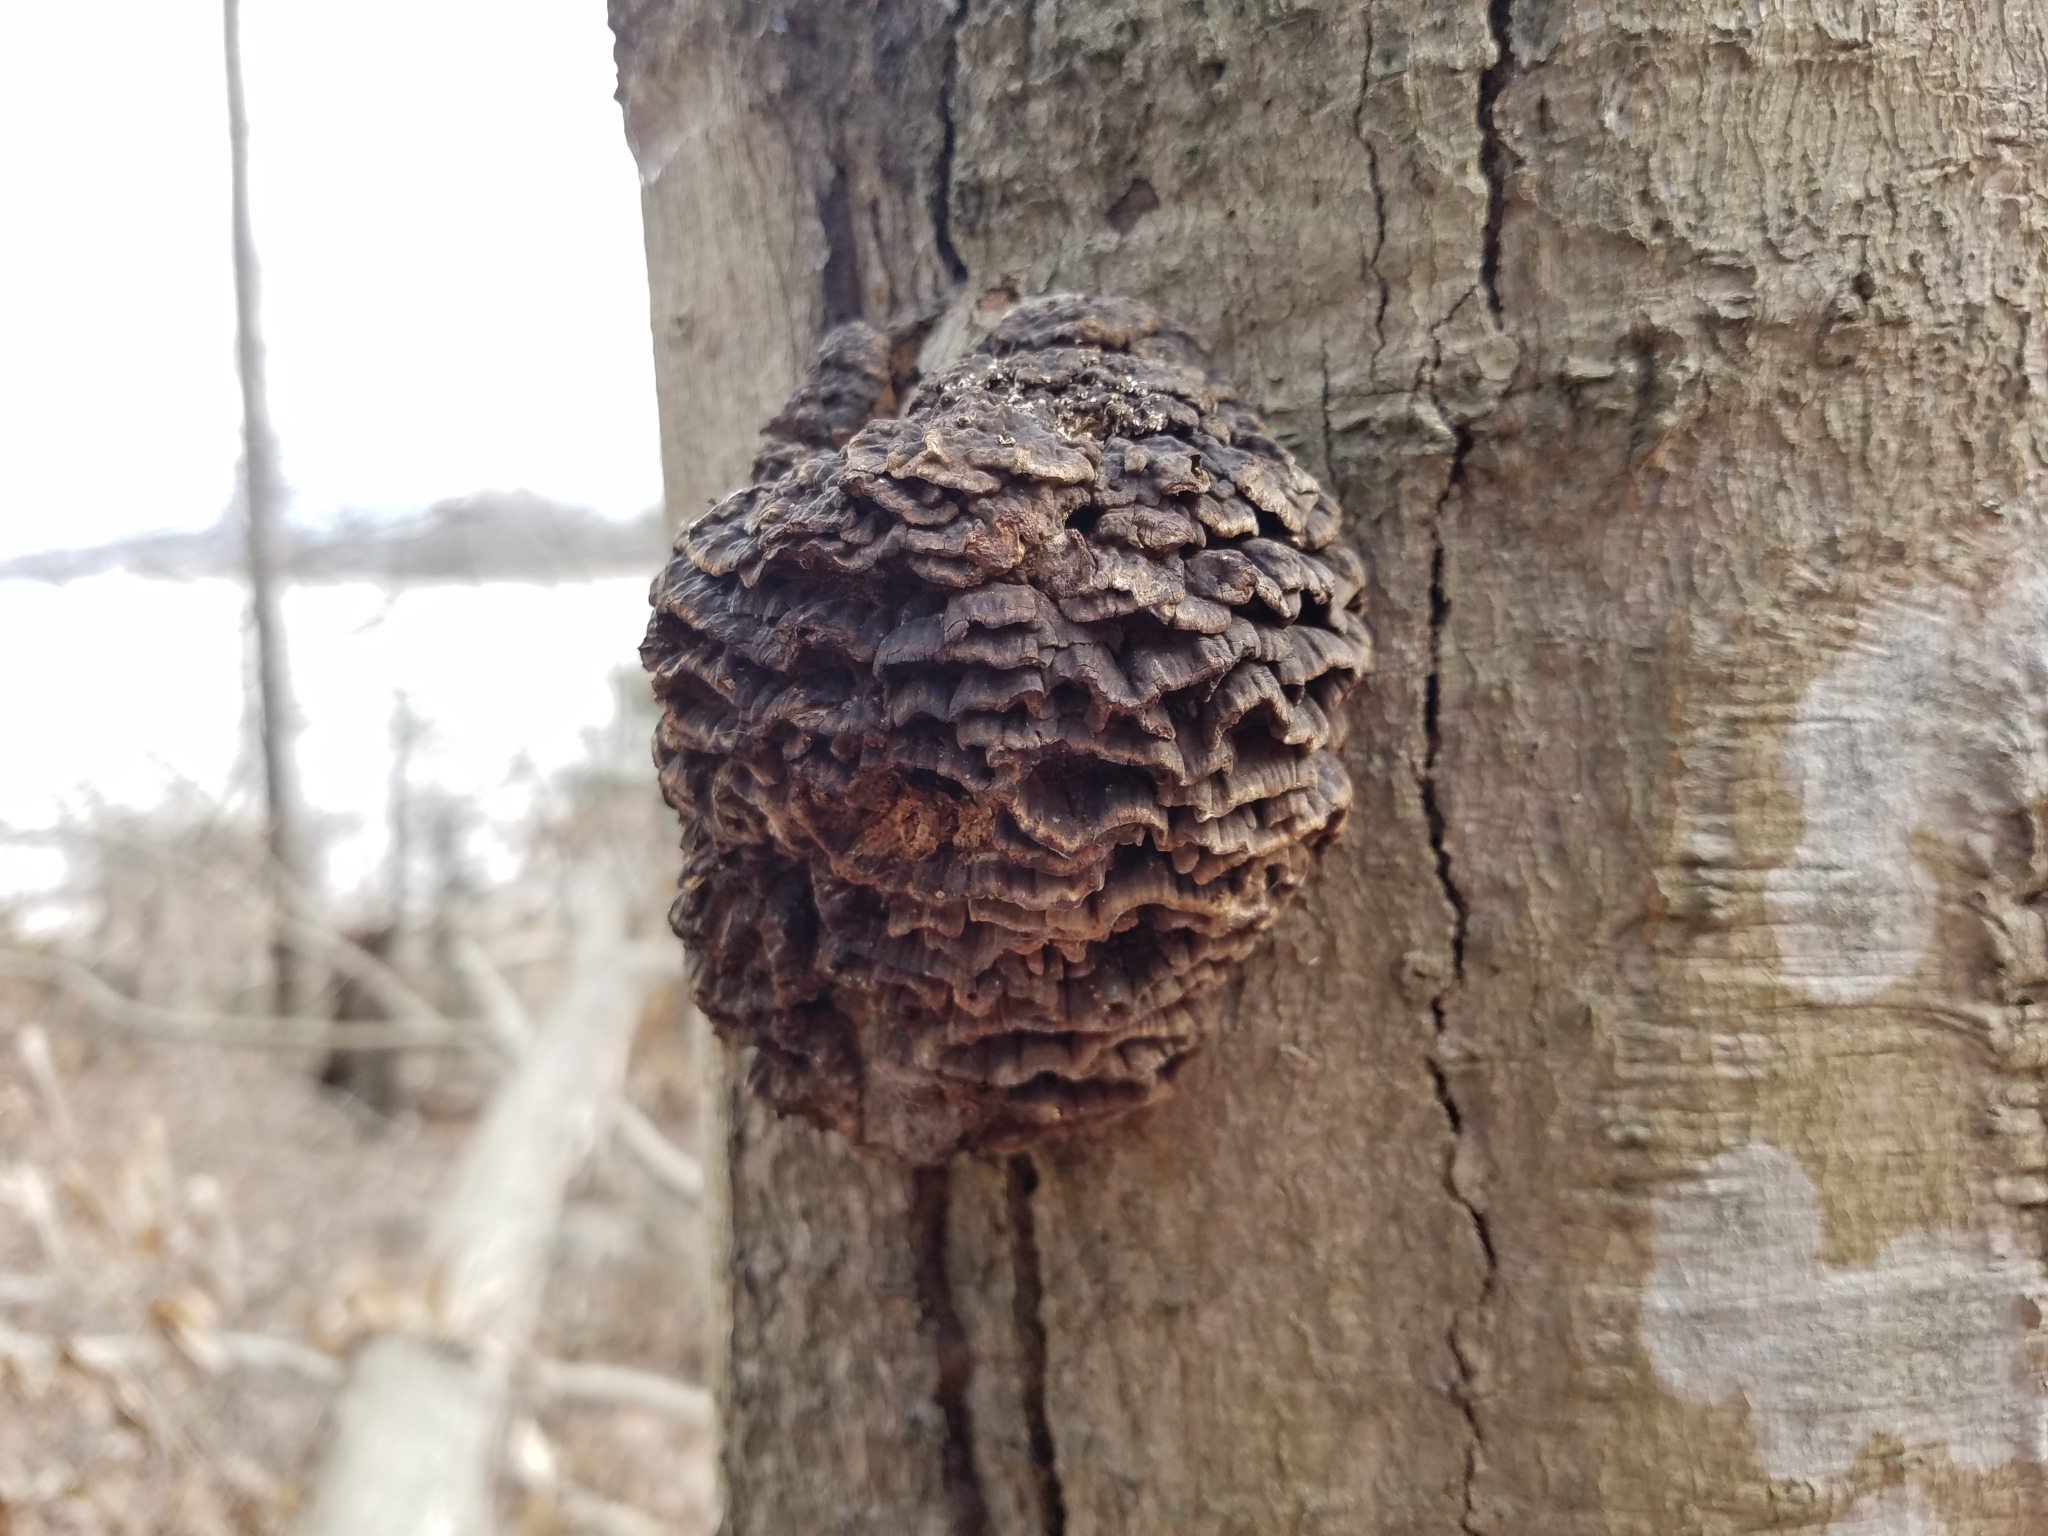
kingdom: Fungi
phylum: Basidiomycota
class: Agaricomycetes
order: Polyporales
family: Polyporaceae
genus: Globifomes
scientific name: Globifomes graveolens
